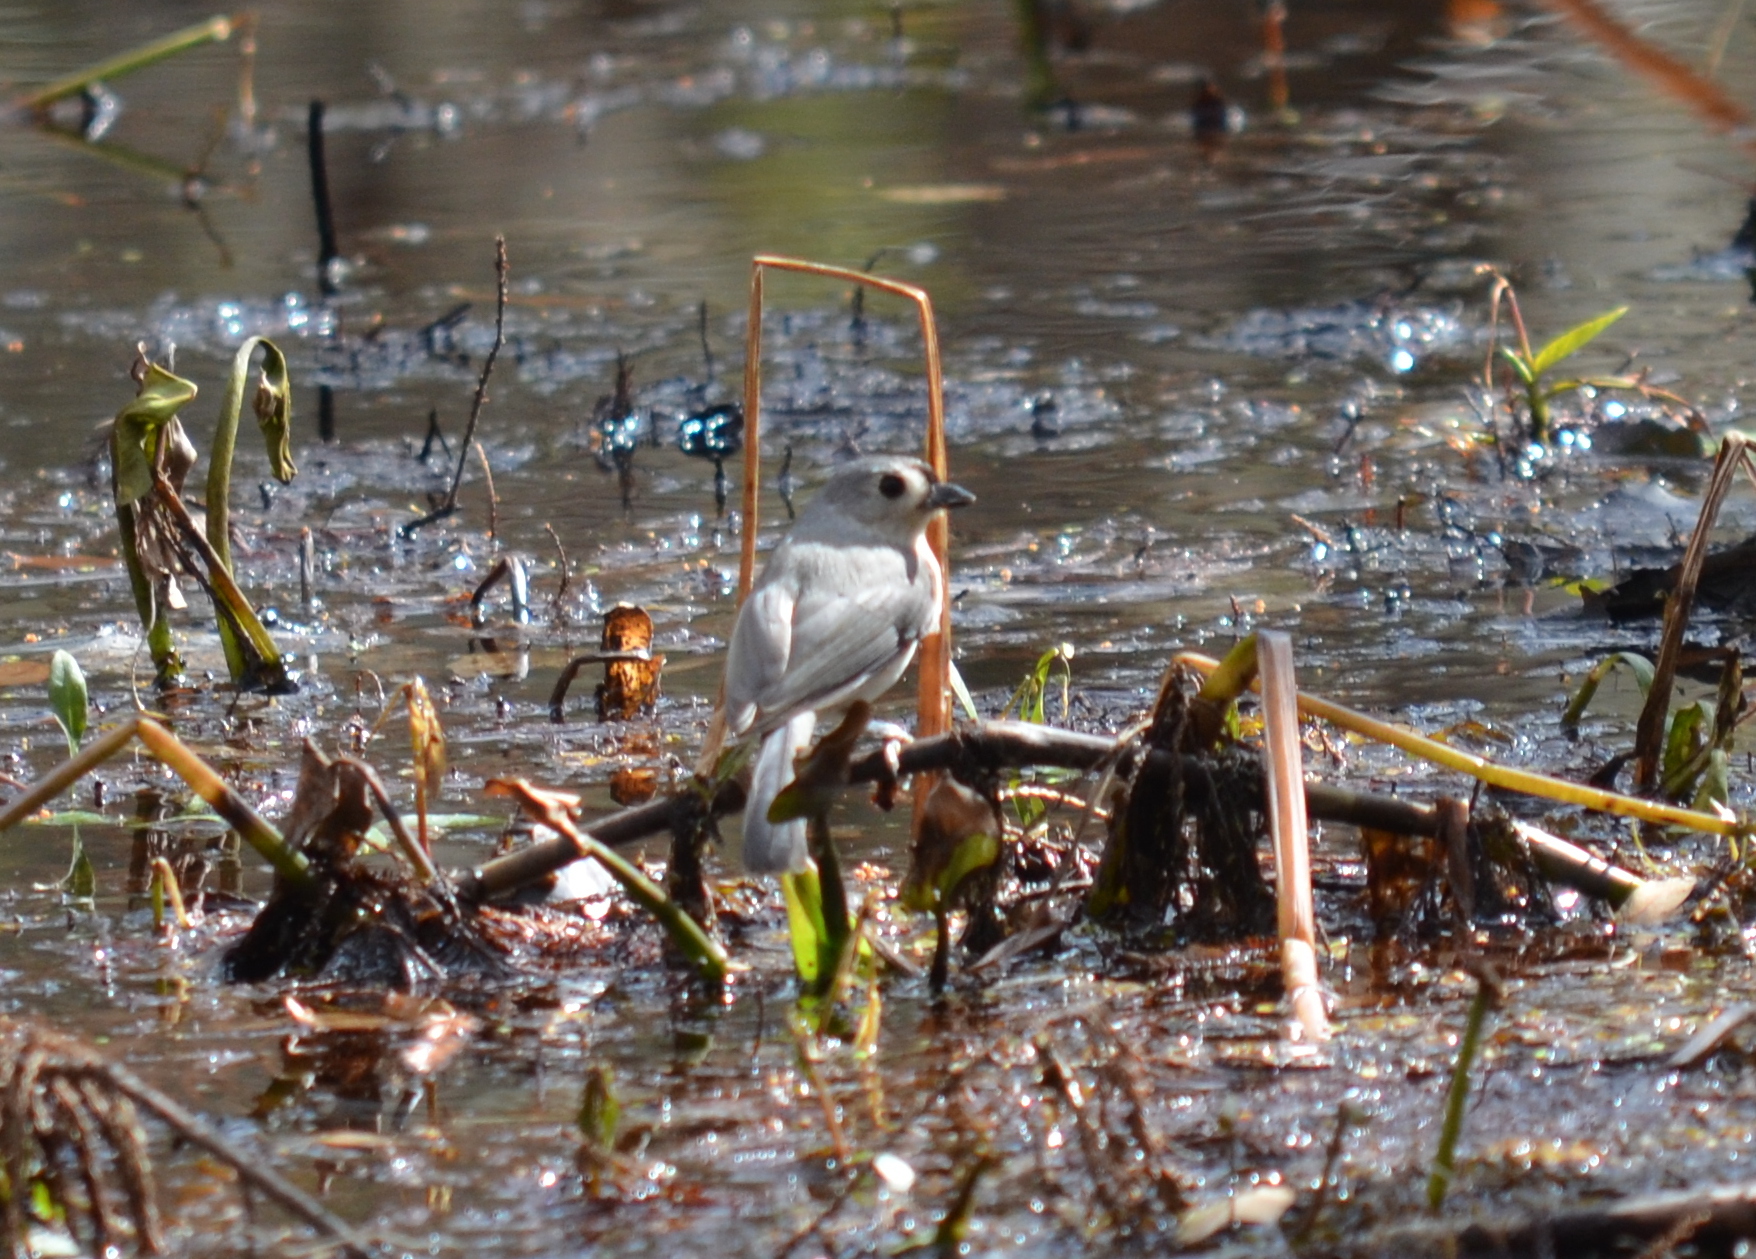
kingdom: Animalia
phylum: Chordata
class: Aves
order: Passeriformes
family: Paridae
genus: Baeolophus
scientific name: Baeolophus bicolor
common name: Tufted titmouse
